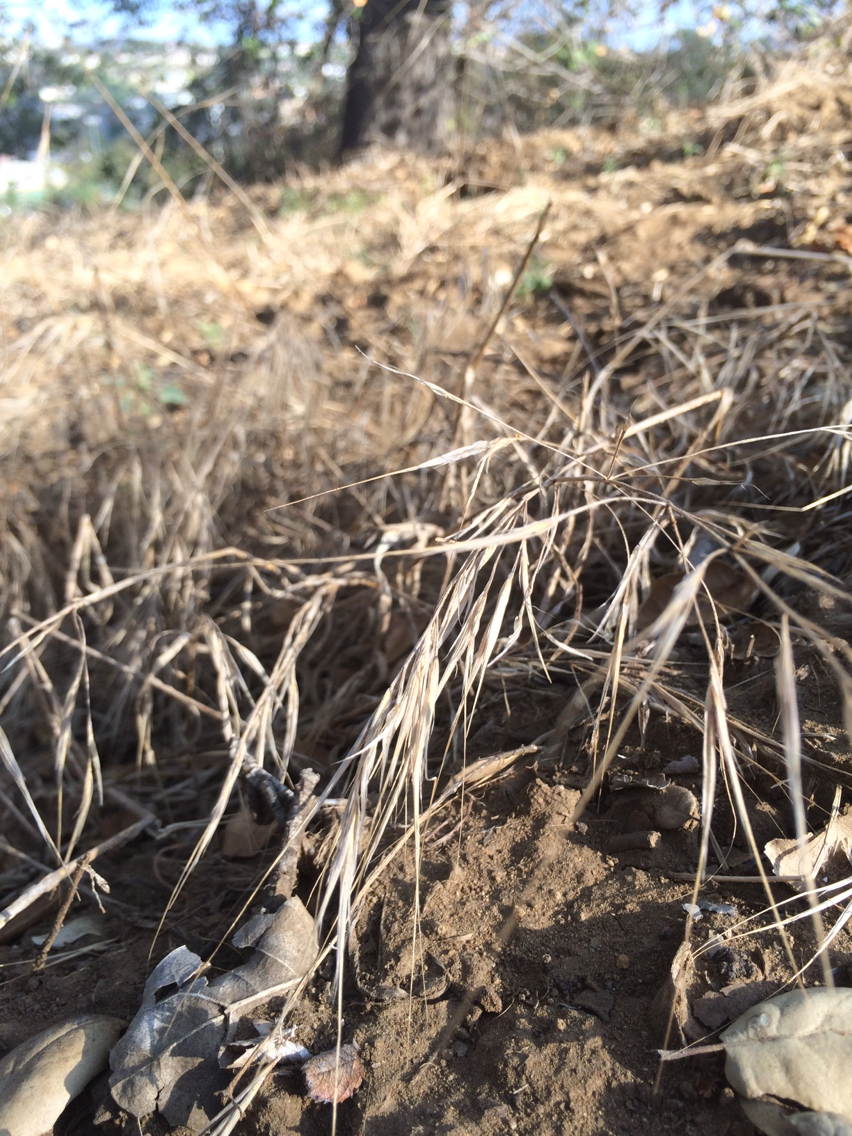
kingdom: Plantae
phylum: Tracheophyta
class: Liliopsida
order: Poales
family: Poaceae
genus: Bromus
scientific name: Bromus diandrus
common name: Ripgut brome
